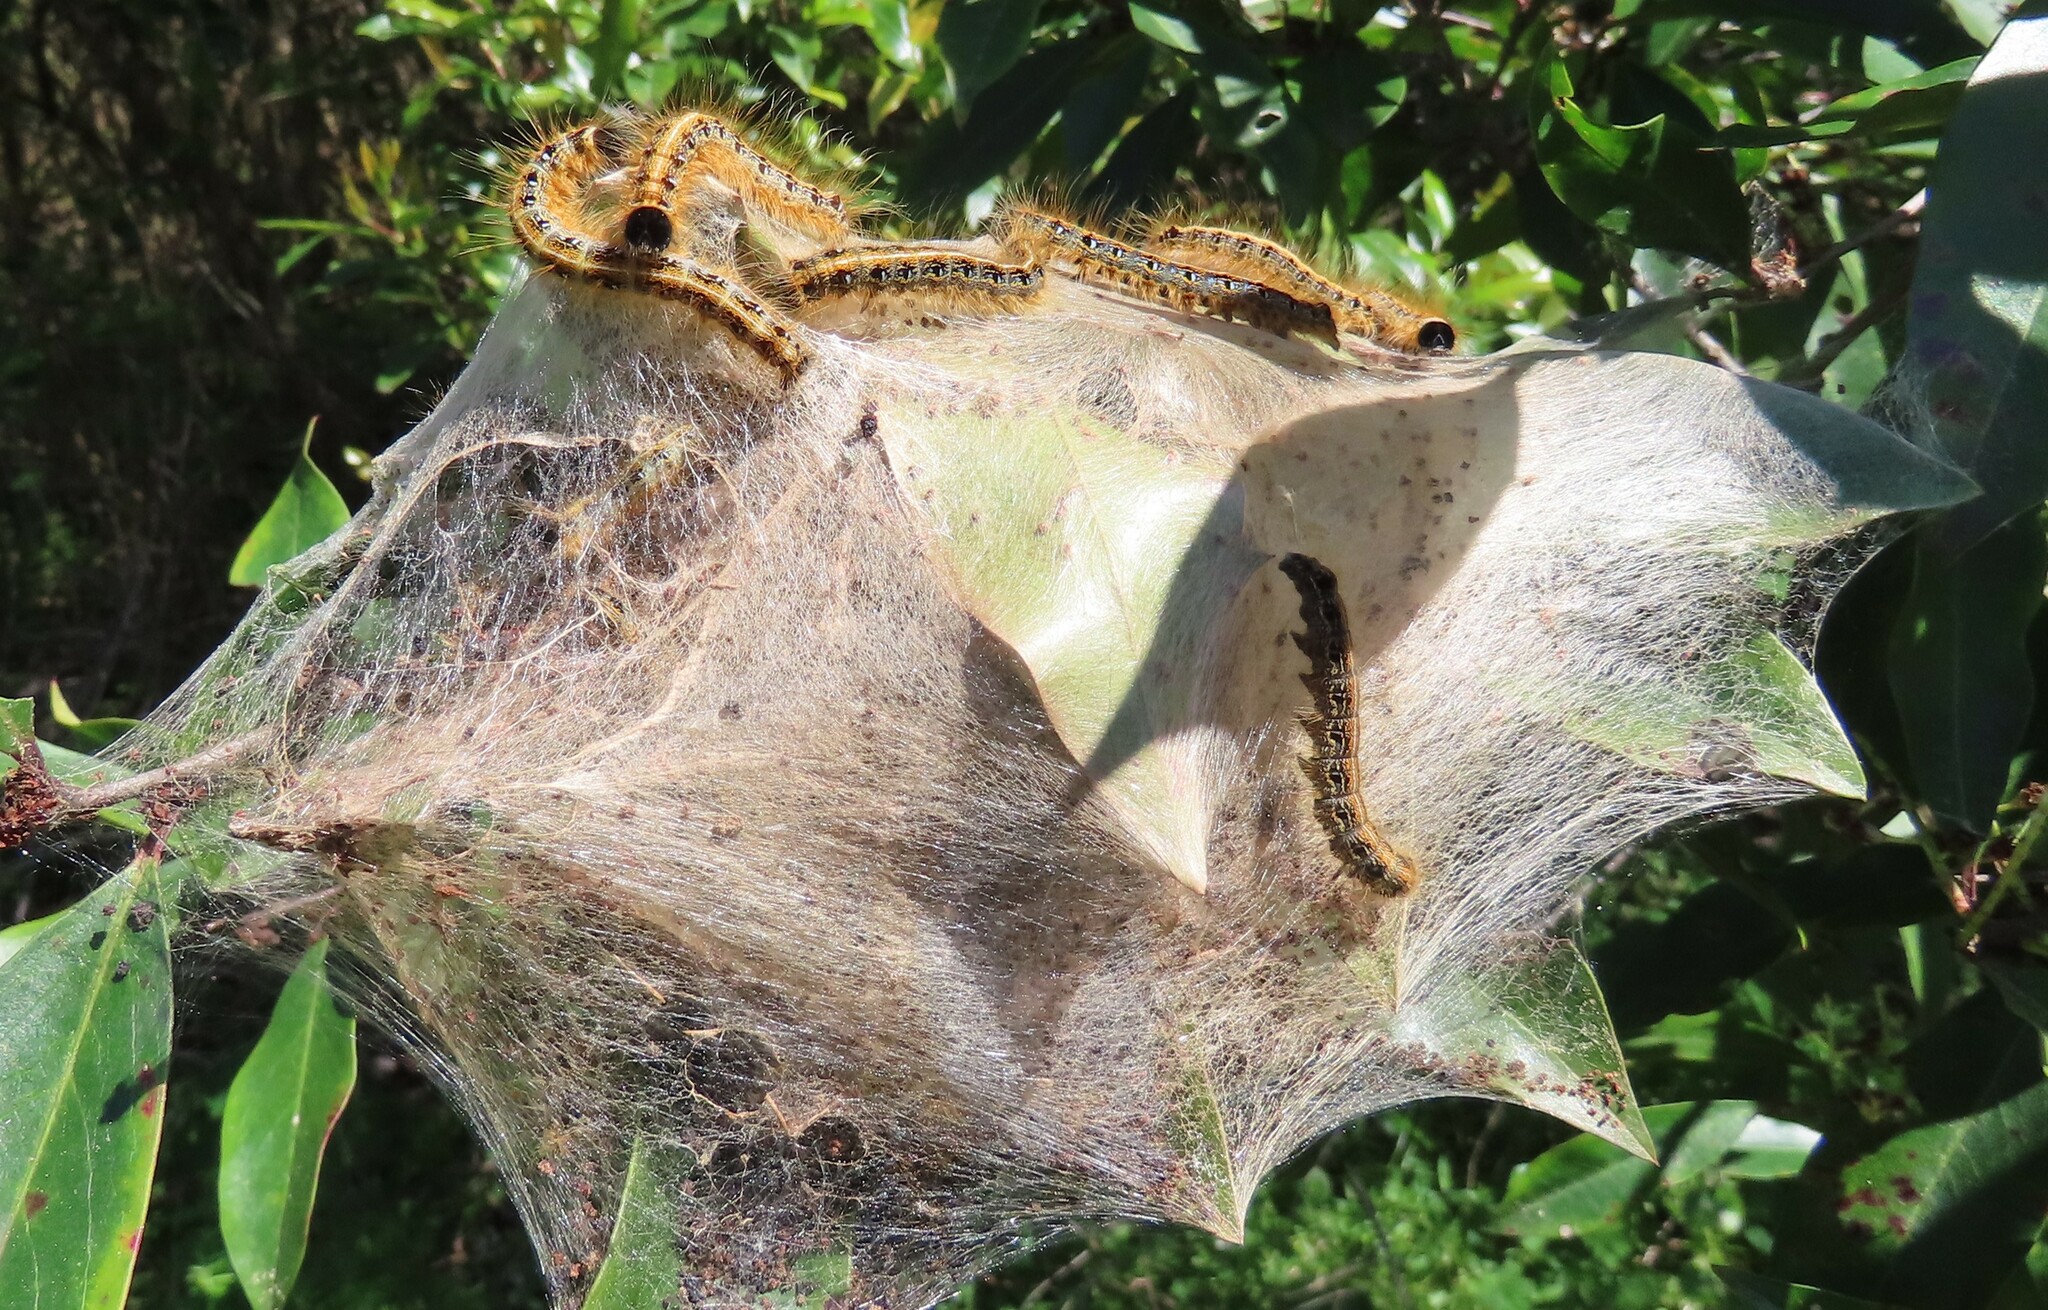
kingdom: Animalia
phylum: Arthropoda
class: Insecta
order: Lepidoptera
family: Lasiocampidae
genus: Malacosoma
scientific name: Malacosoma americana
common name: Eastern tent caterpillar moth
